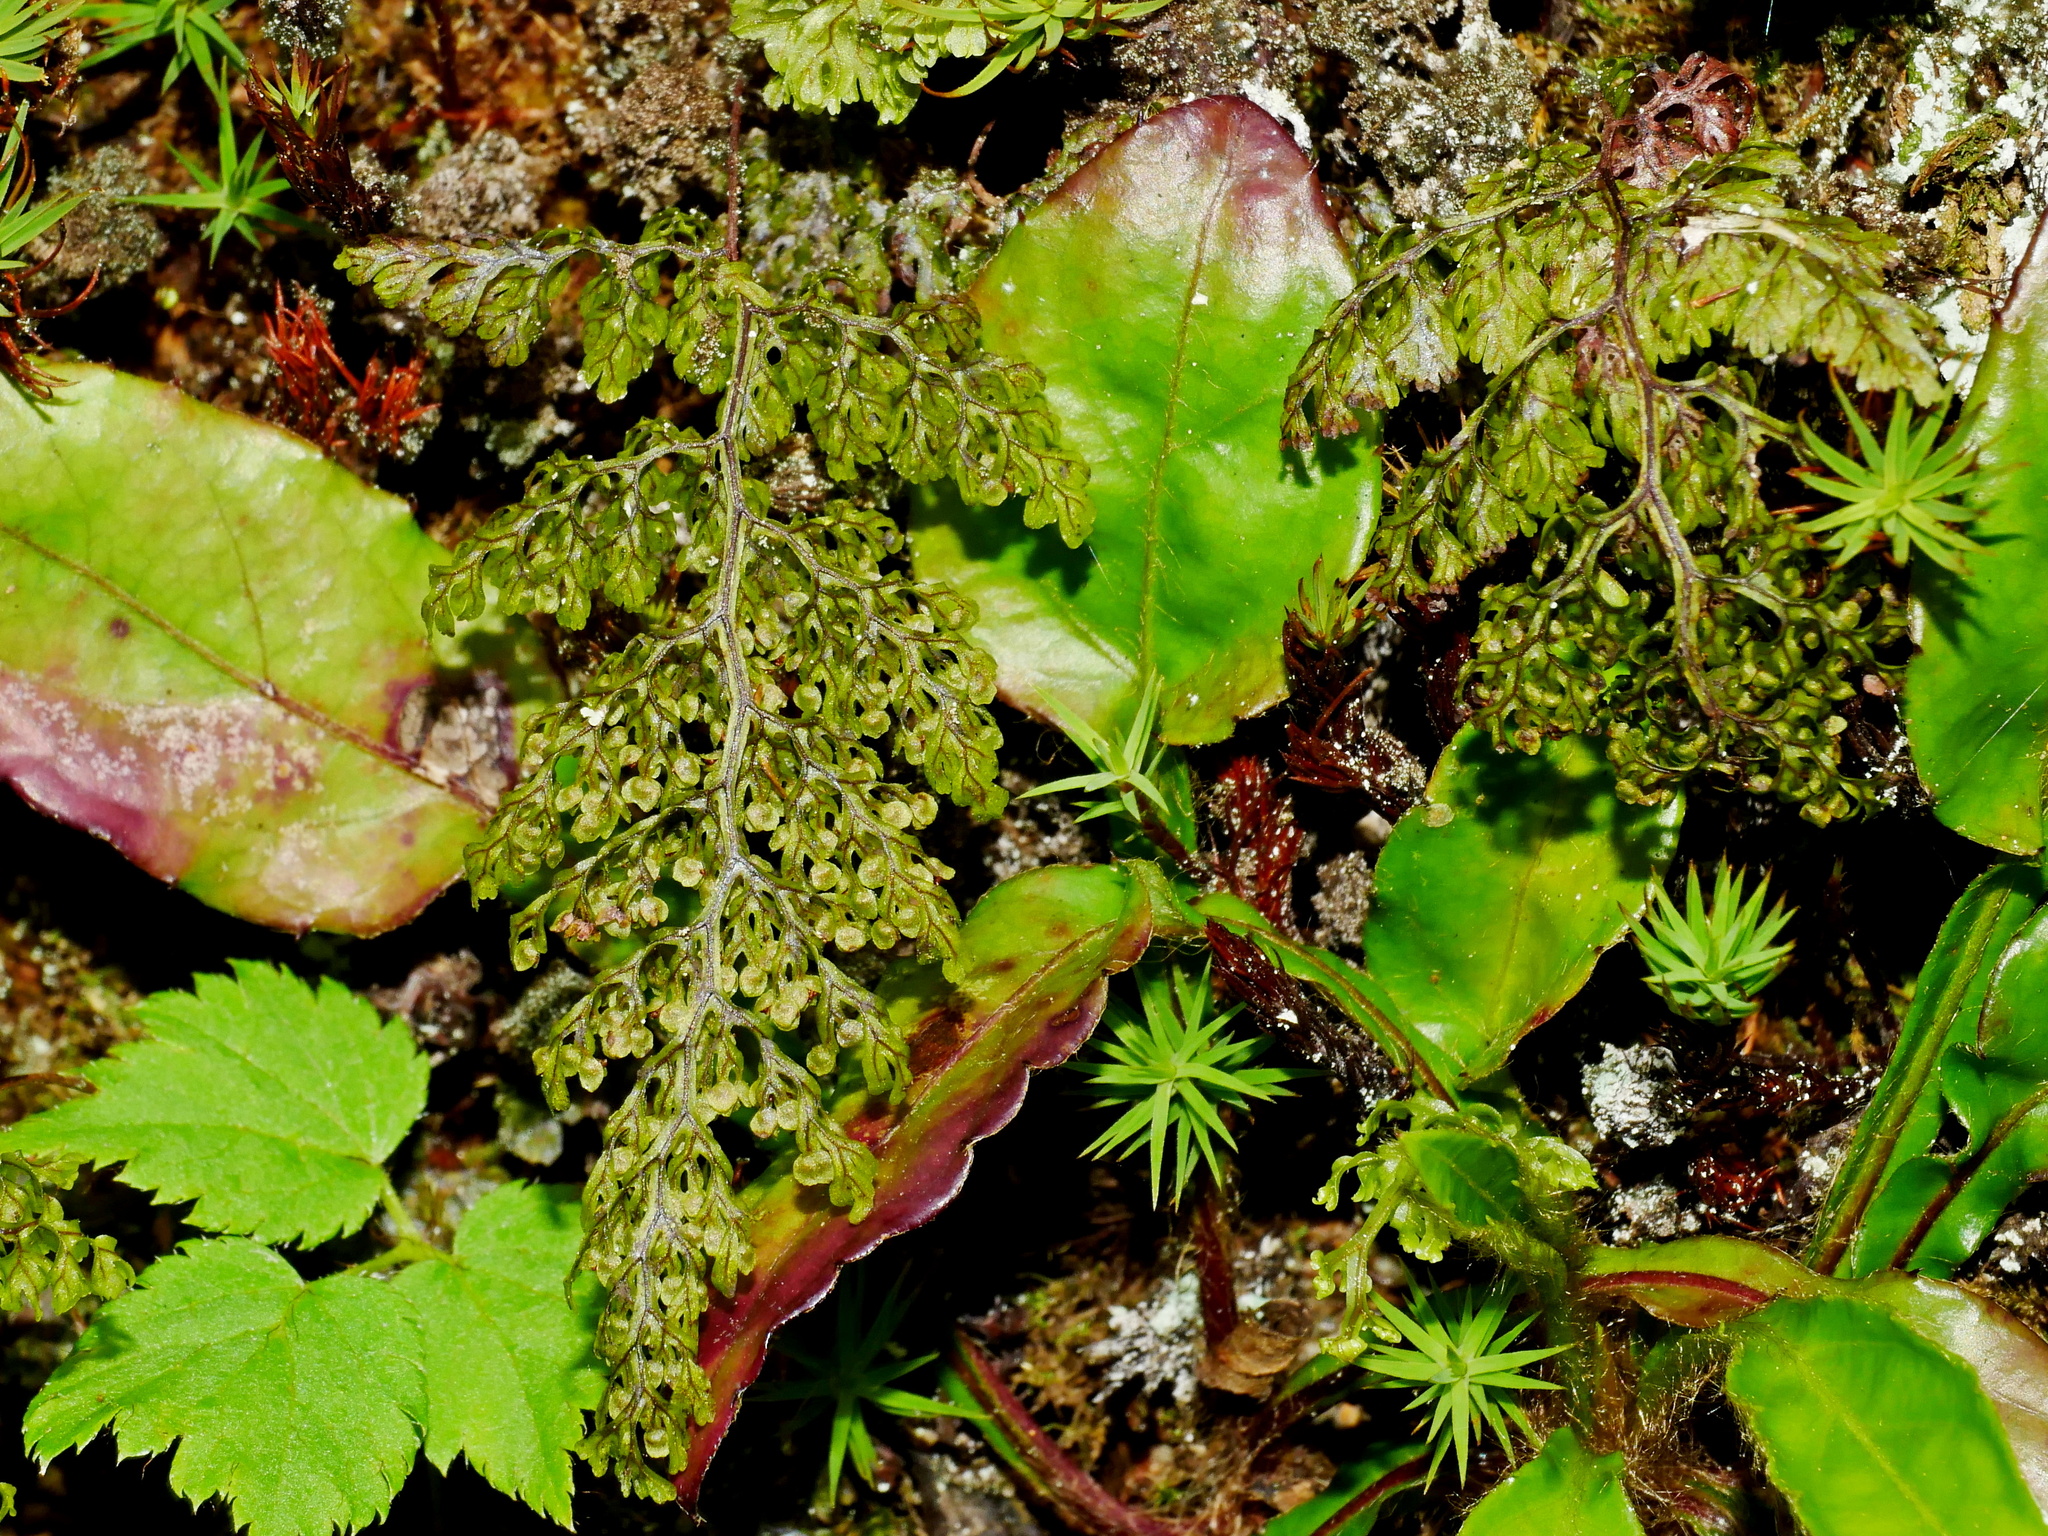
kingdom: Plantae
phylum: Tracheophyta
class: Polypodiopsida
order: Hymenophyllales
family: Hymenophyllaceae
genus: Hymenophyllum
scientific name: Hymenophyllum punctisorum
